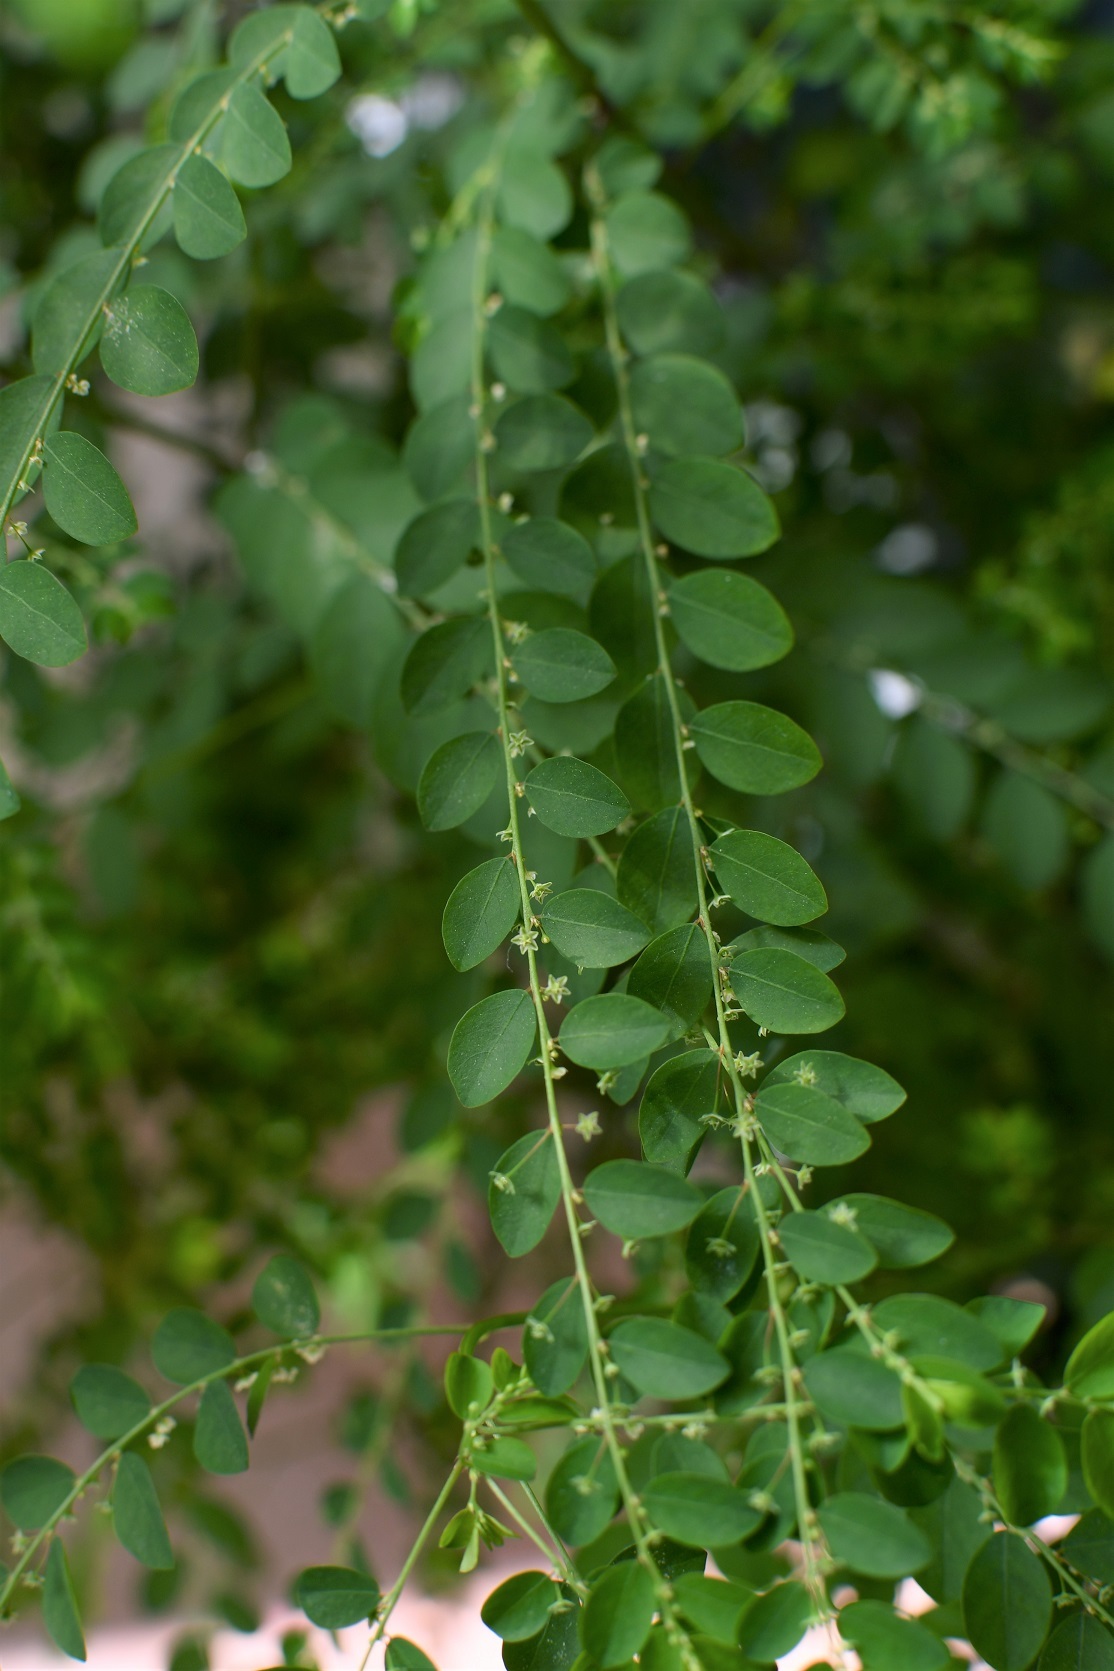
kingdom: Plantae
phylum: Tracheophyta
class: Magnoliopsida
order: Malpighiales
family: Phyllanthaceae
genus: Phyllanthus
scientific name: Phyllanthus tenellus
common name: Mascarene island leaf-flower
